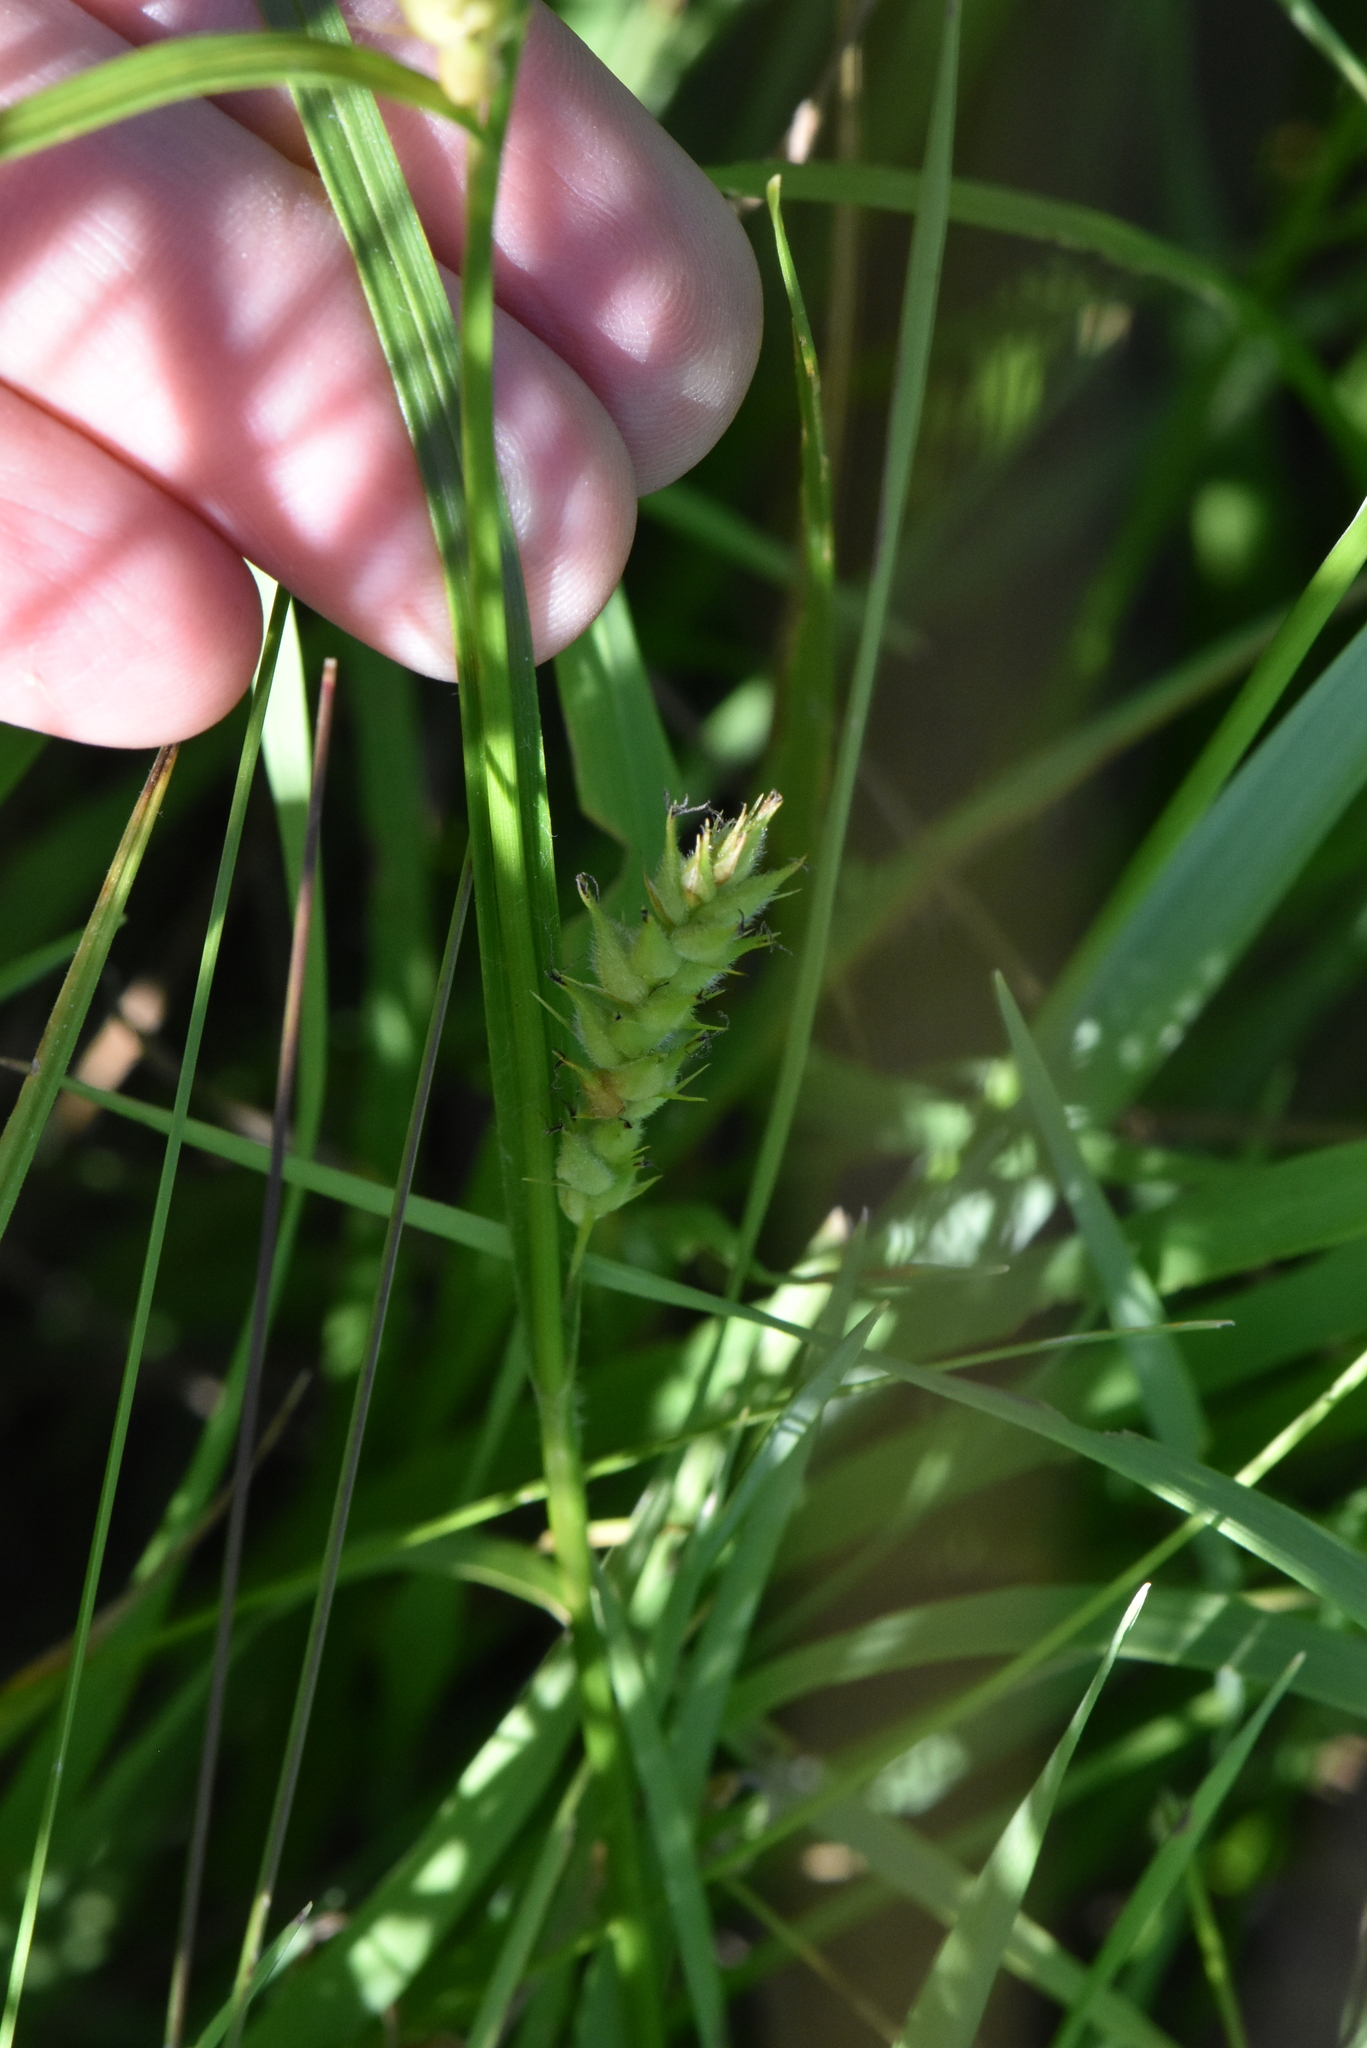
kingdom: Plantae
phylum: Tracheophyta
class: Liliopsida
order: Poales
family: Cyperaceae
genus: Carex
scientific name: Carex hirta
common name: Hairy sedge
